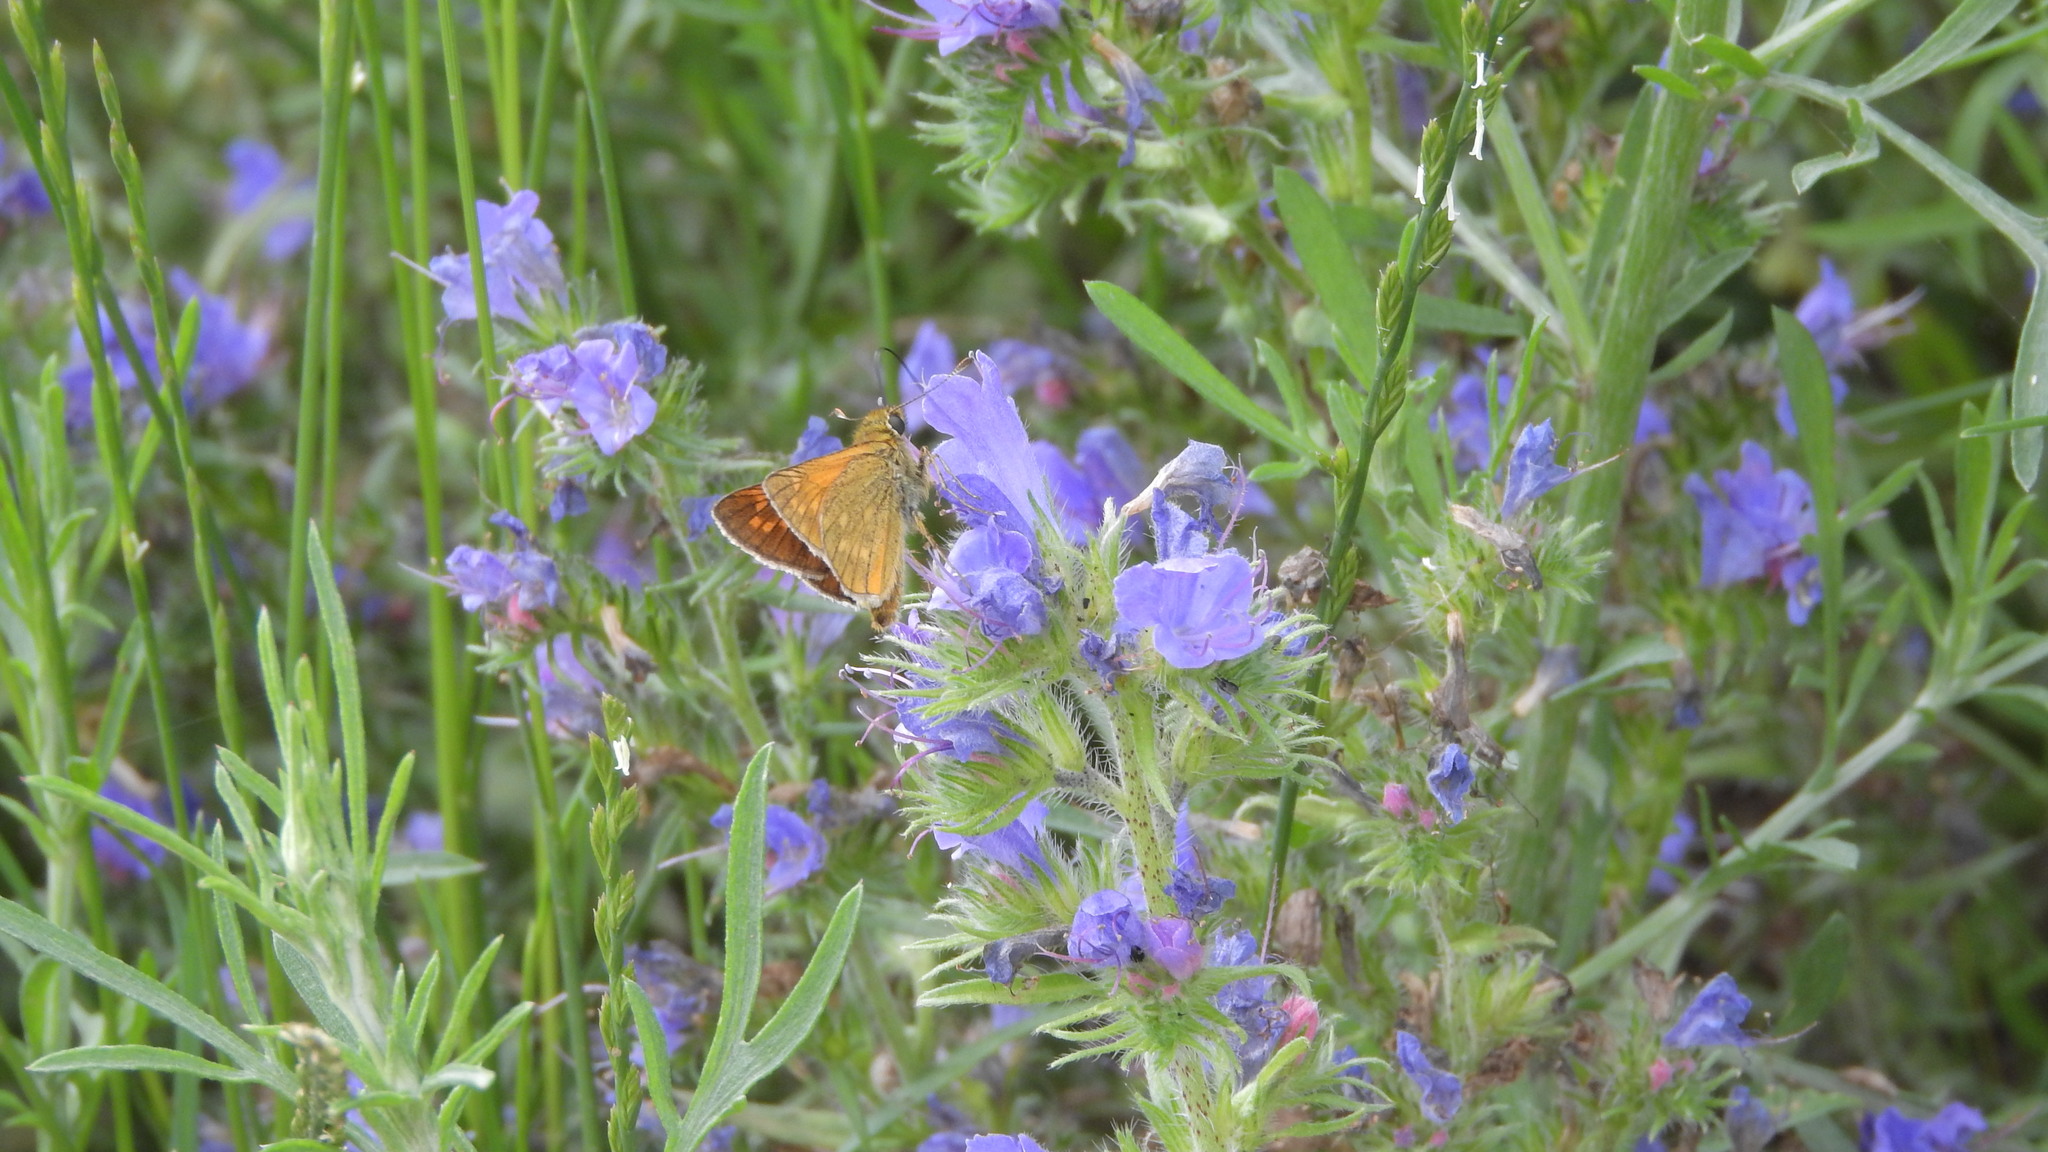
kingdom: Animalia
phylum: Arthropoda
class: Insecta
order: Lepidoptera
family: Hesperiidae
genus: Ochlodes
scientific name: Ochlodes venata
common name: Large skipper
